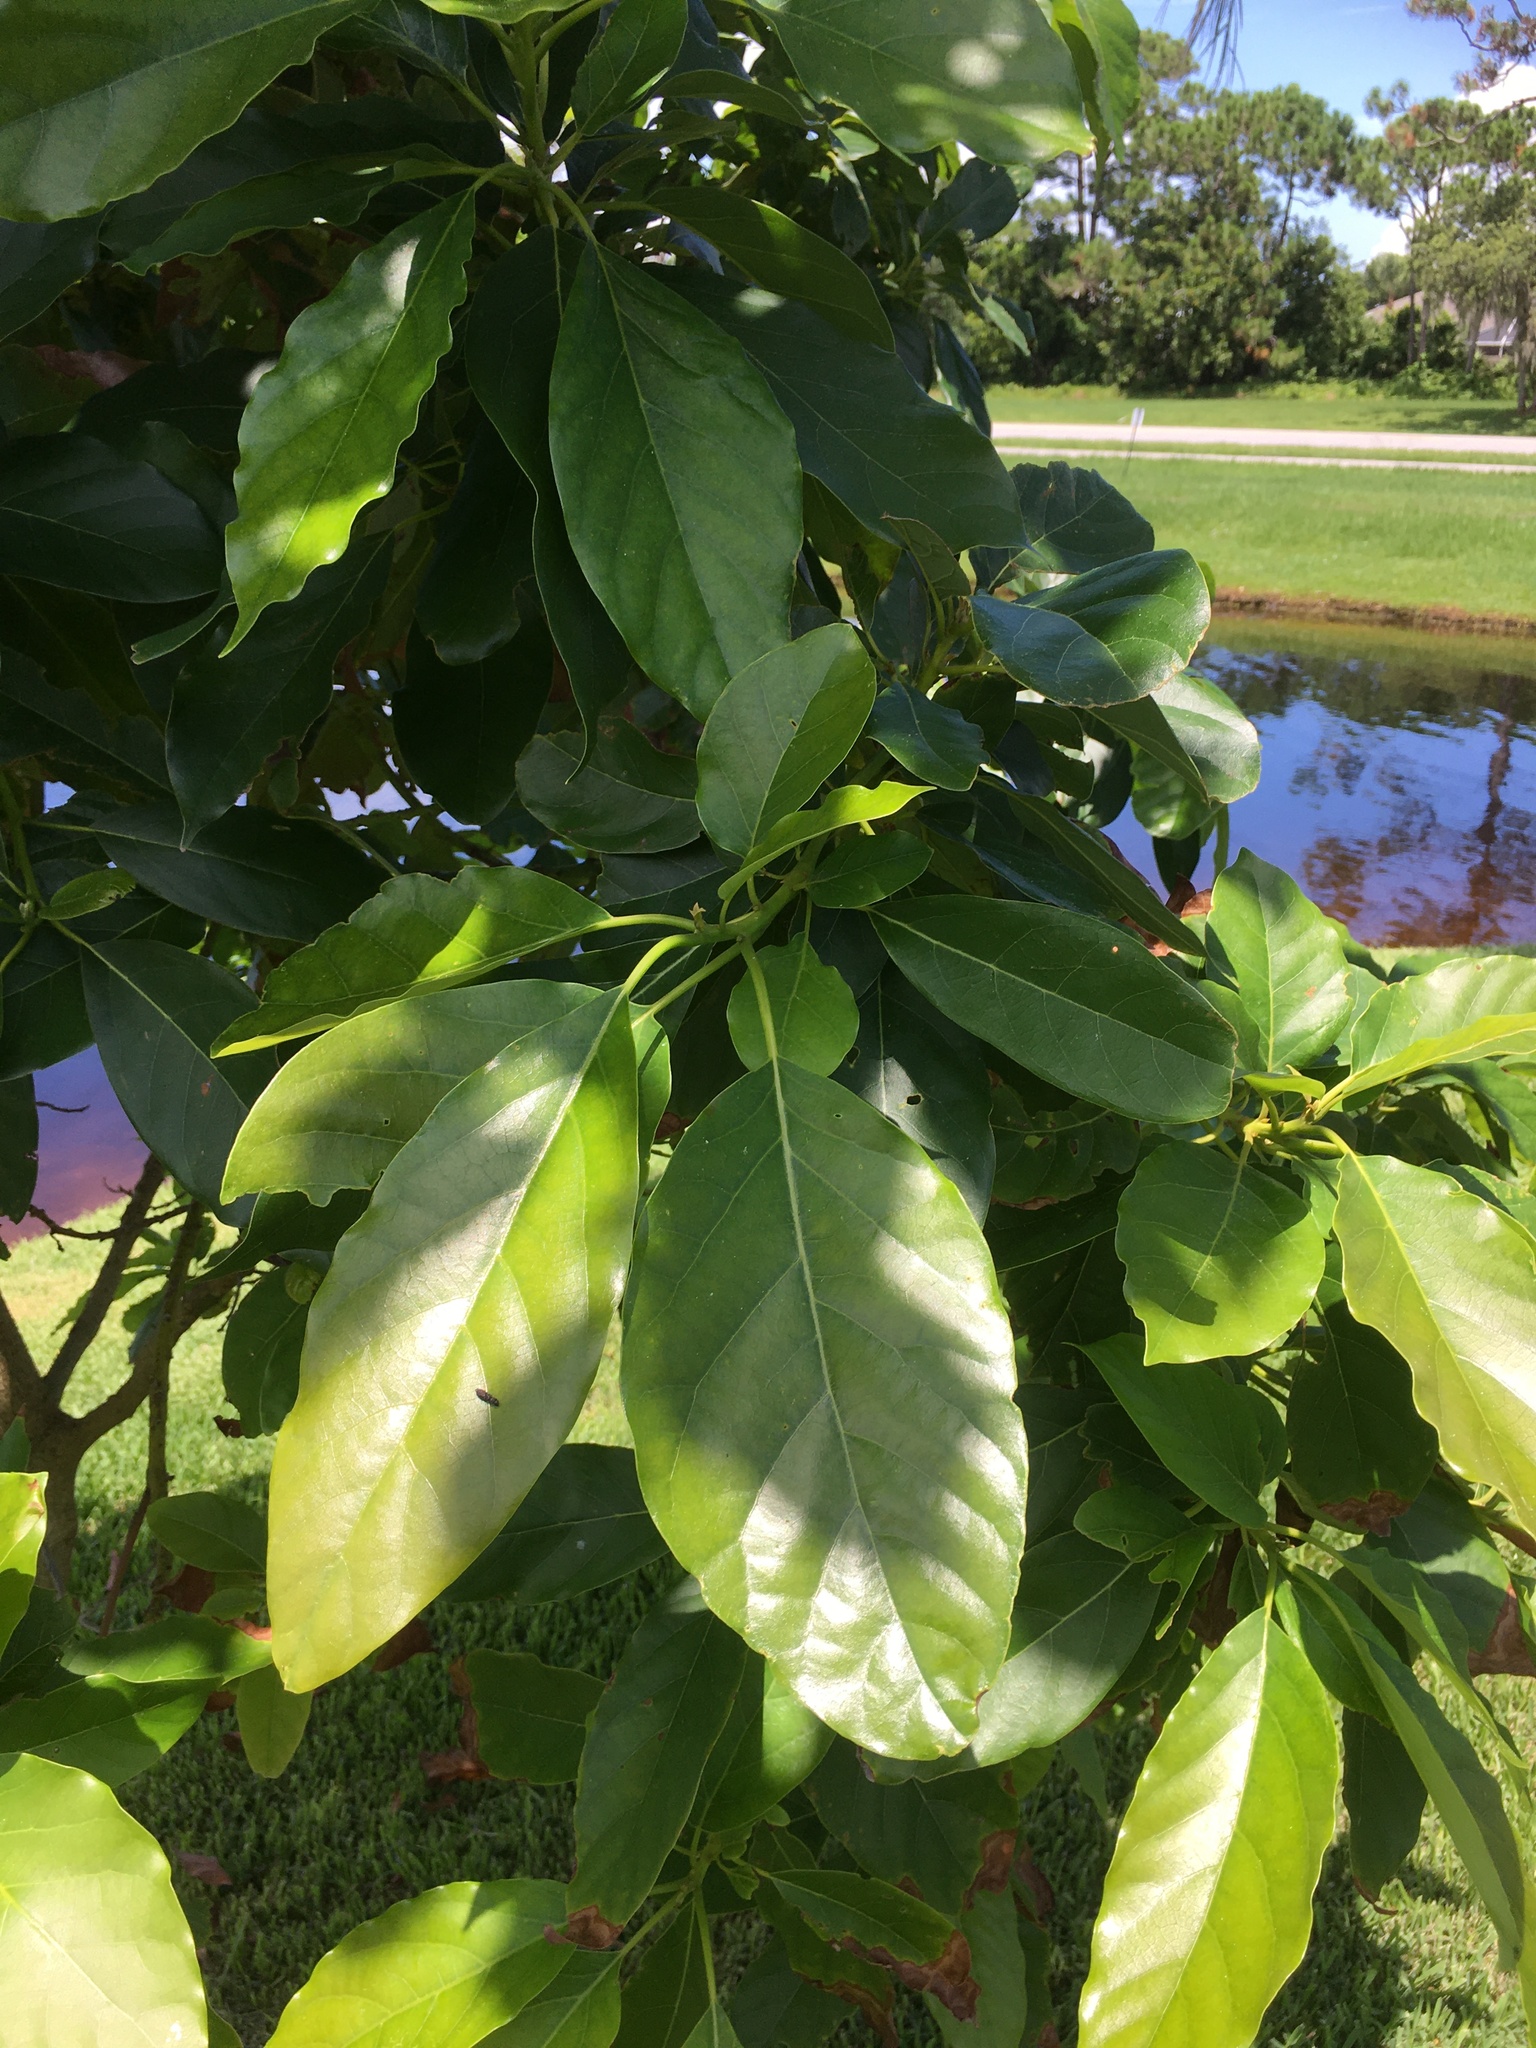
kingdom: Plantae
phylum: Tracheophyta
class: Magnoliopsida
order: Laurales
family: Lauraceae
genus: Persea
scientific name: Persea americana
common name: Avocado
